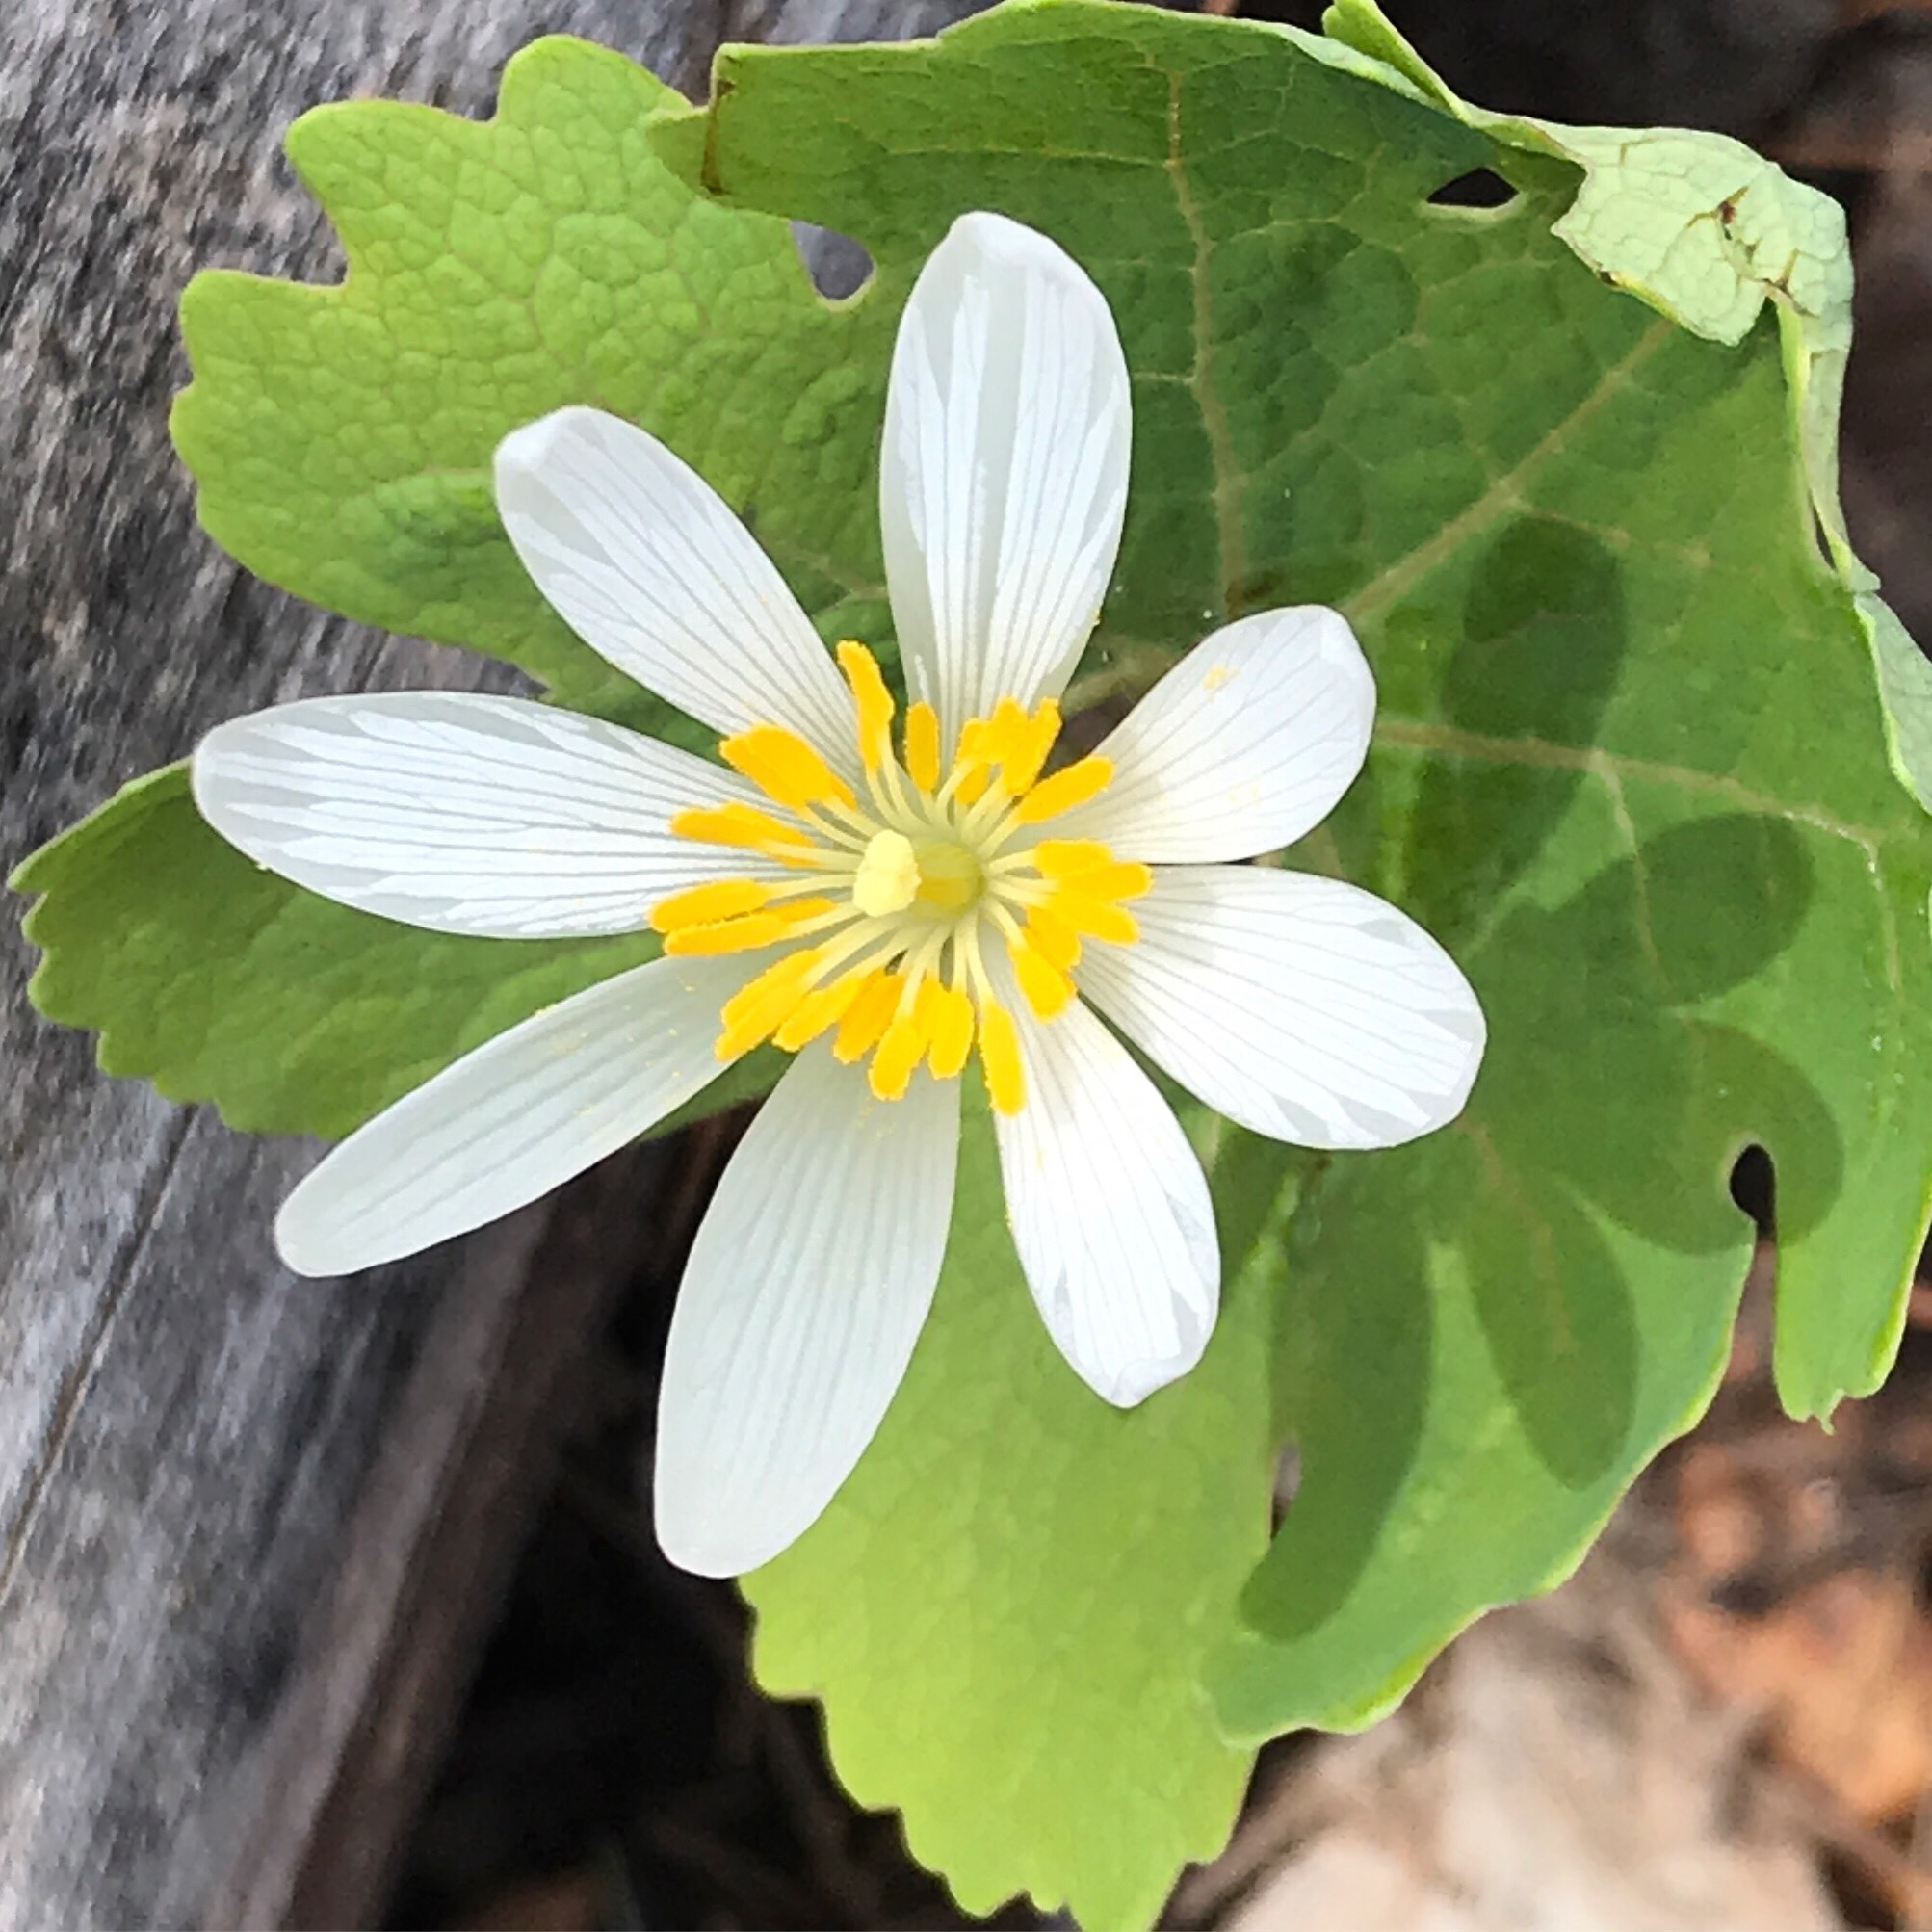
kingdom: Plantae
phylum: Tracheophyta
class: Magnoliopsida
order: Ranunculales
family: Papaveraceae
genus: Sanguinaria
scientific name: Sanguinaria canadensis
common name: Bloodroot
